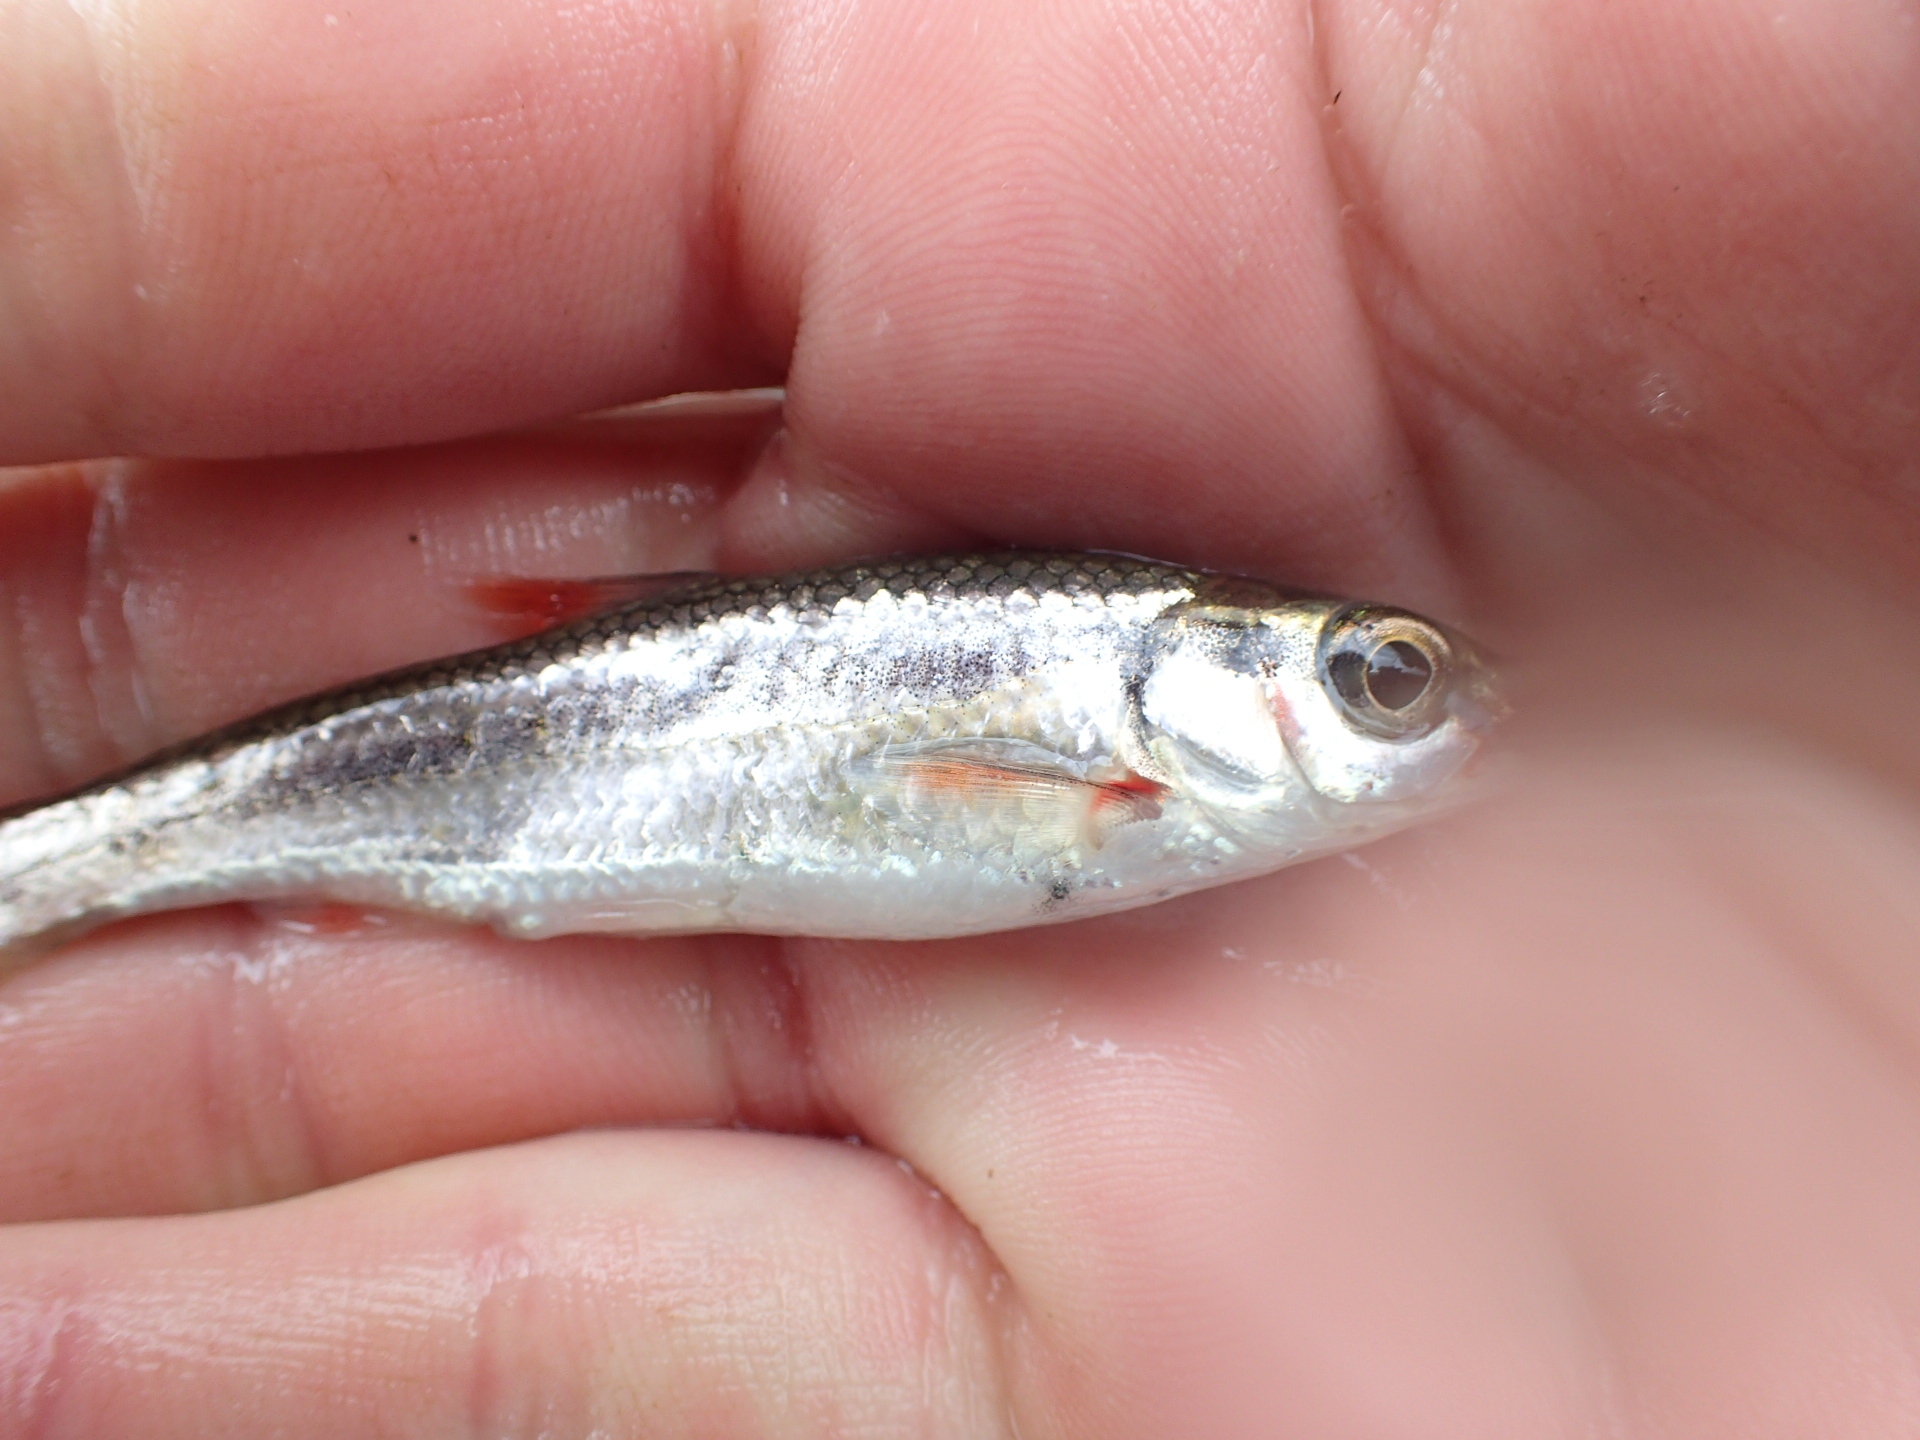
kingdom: Animalia
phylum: Chordata
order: Cypriniformes
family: Cyprinidae
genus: Luxilus
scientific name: Luxilus zonatus
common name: Bleeding shiner
